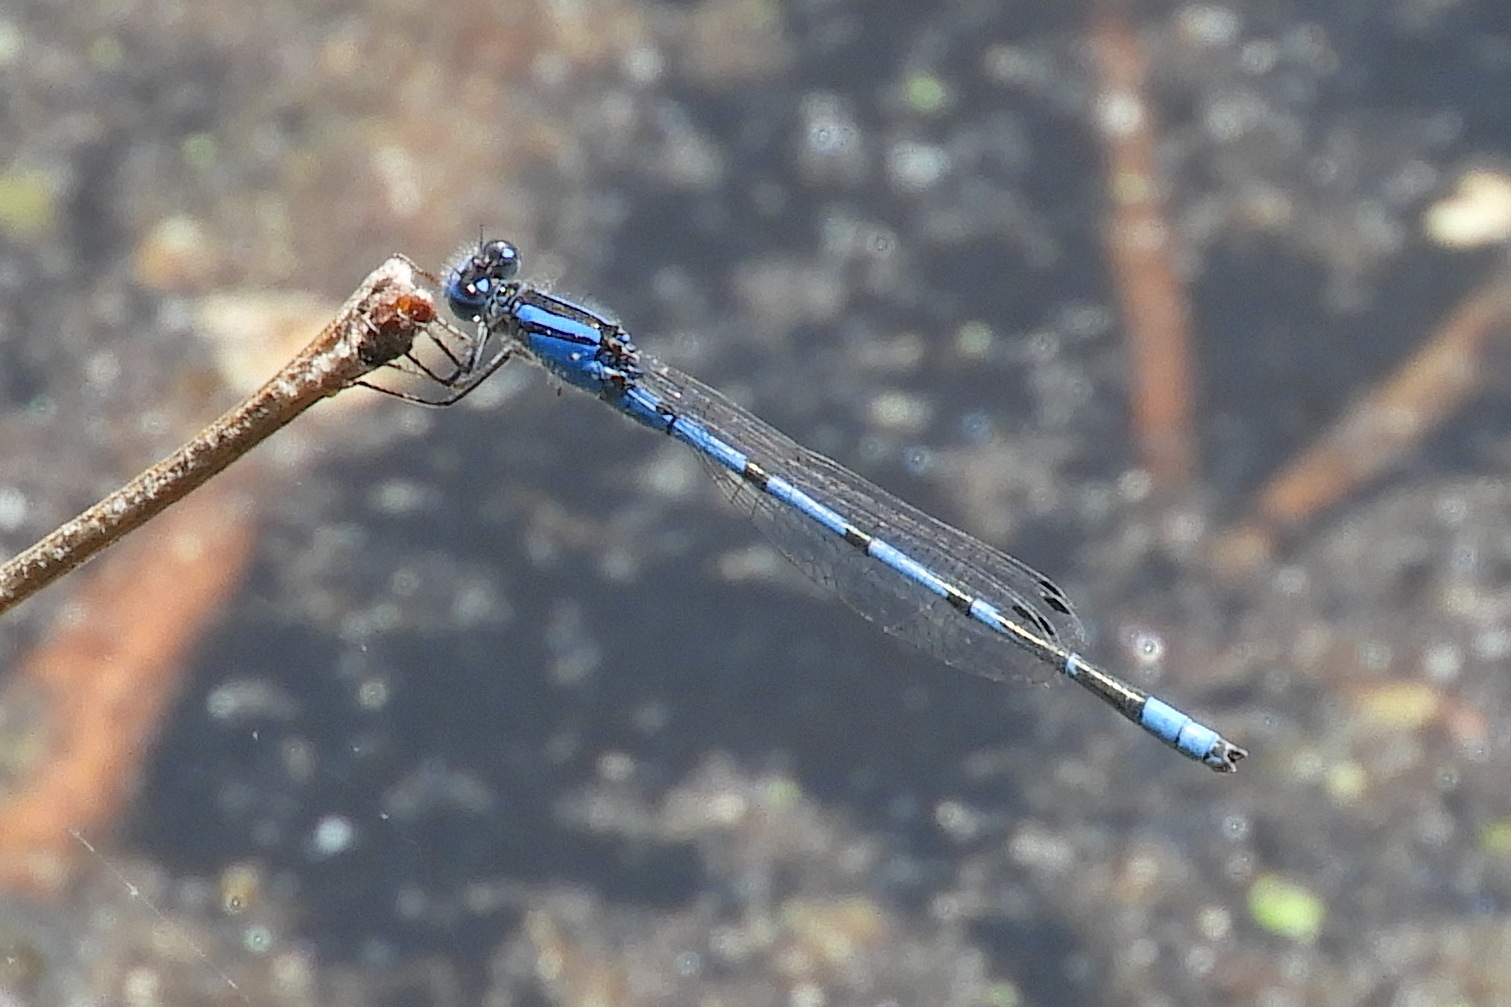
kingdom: Animalia
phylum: Arthropoda
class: Insecta
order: Odonata
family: Coenagrionidae
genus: Enallagma
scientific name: Enallagma civile
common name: Damselfly
